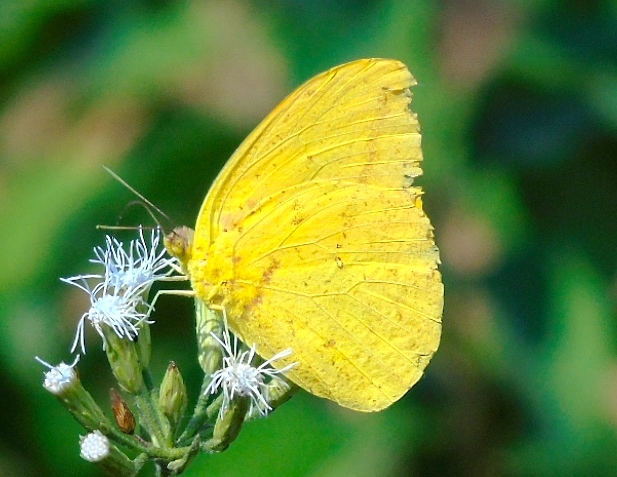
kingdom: Animalia
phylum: Arthropoda
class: Insecta
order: Lepidoptera
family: Pieridae
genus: Phoebis
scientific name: Phoebis
